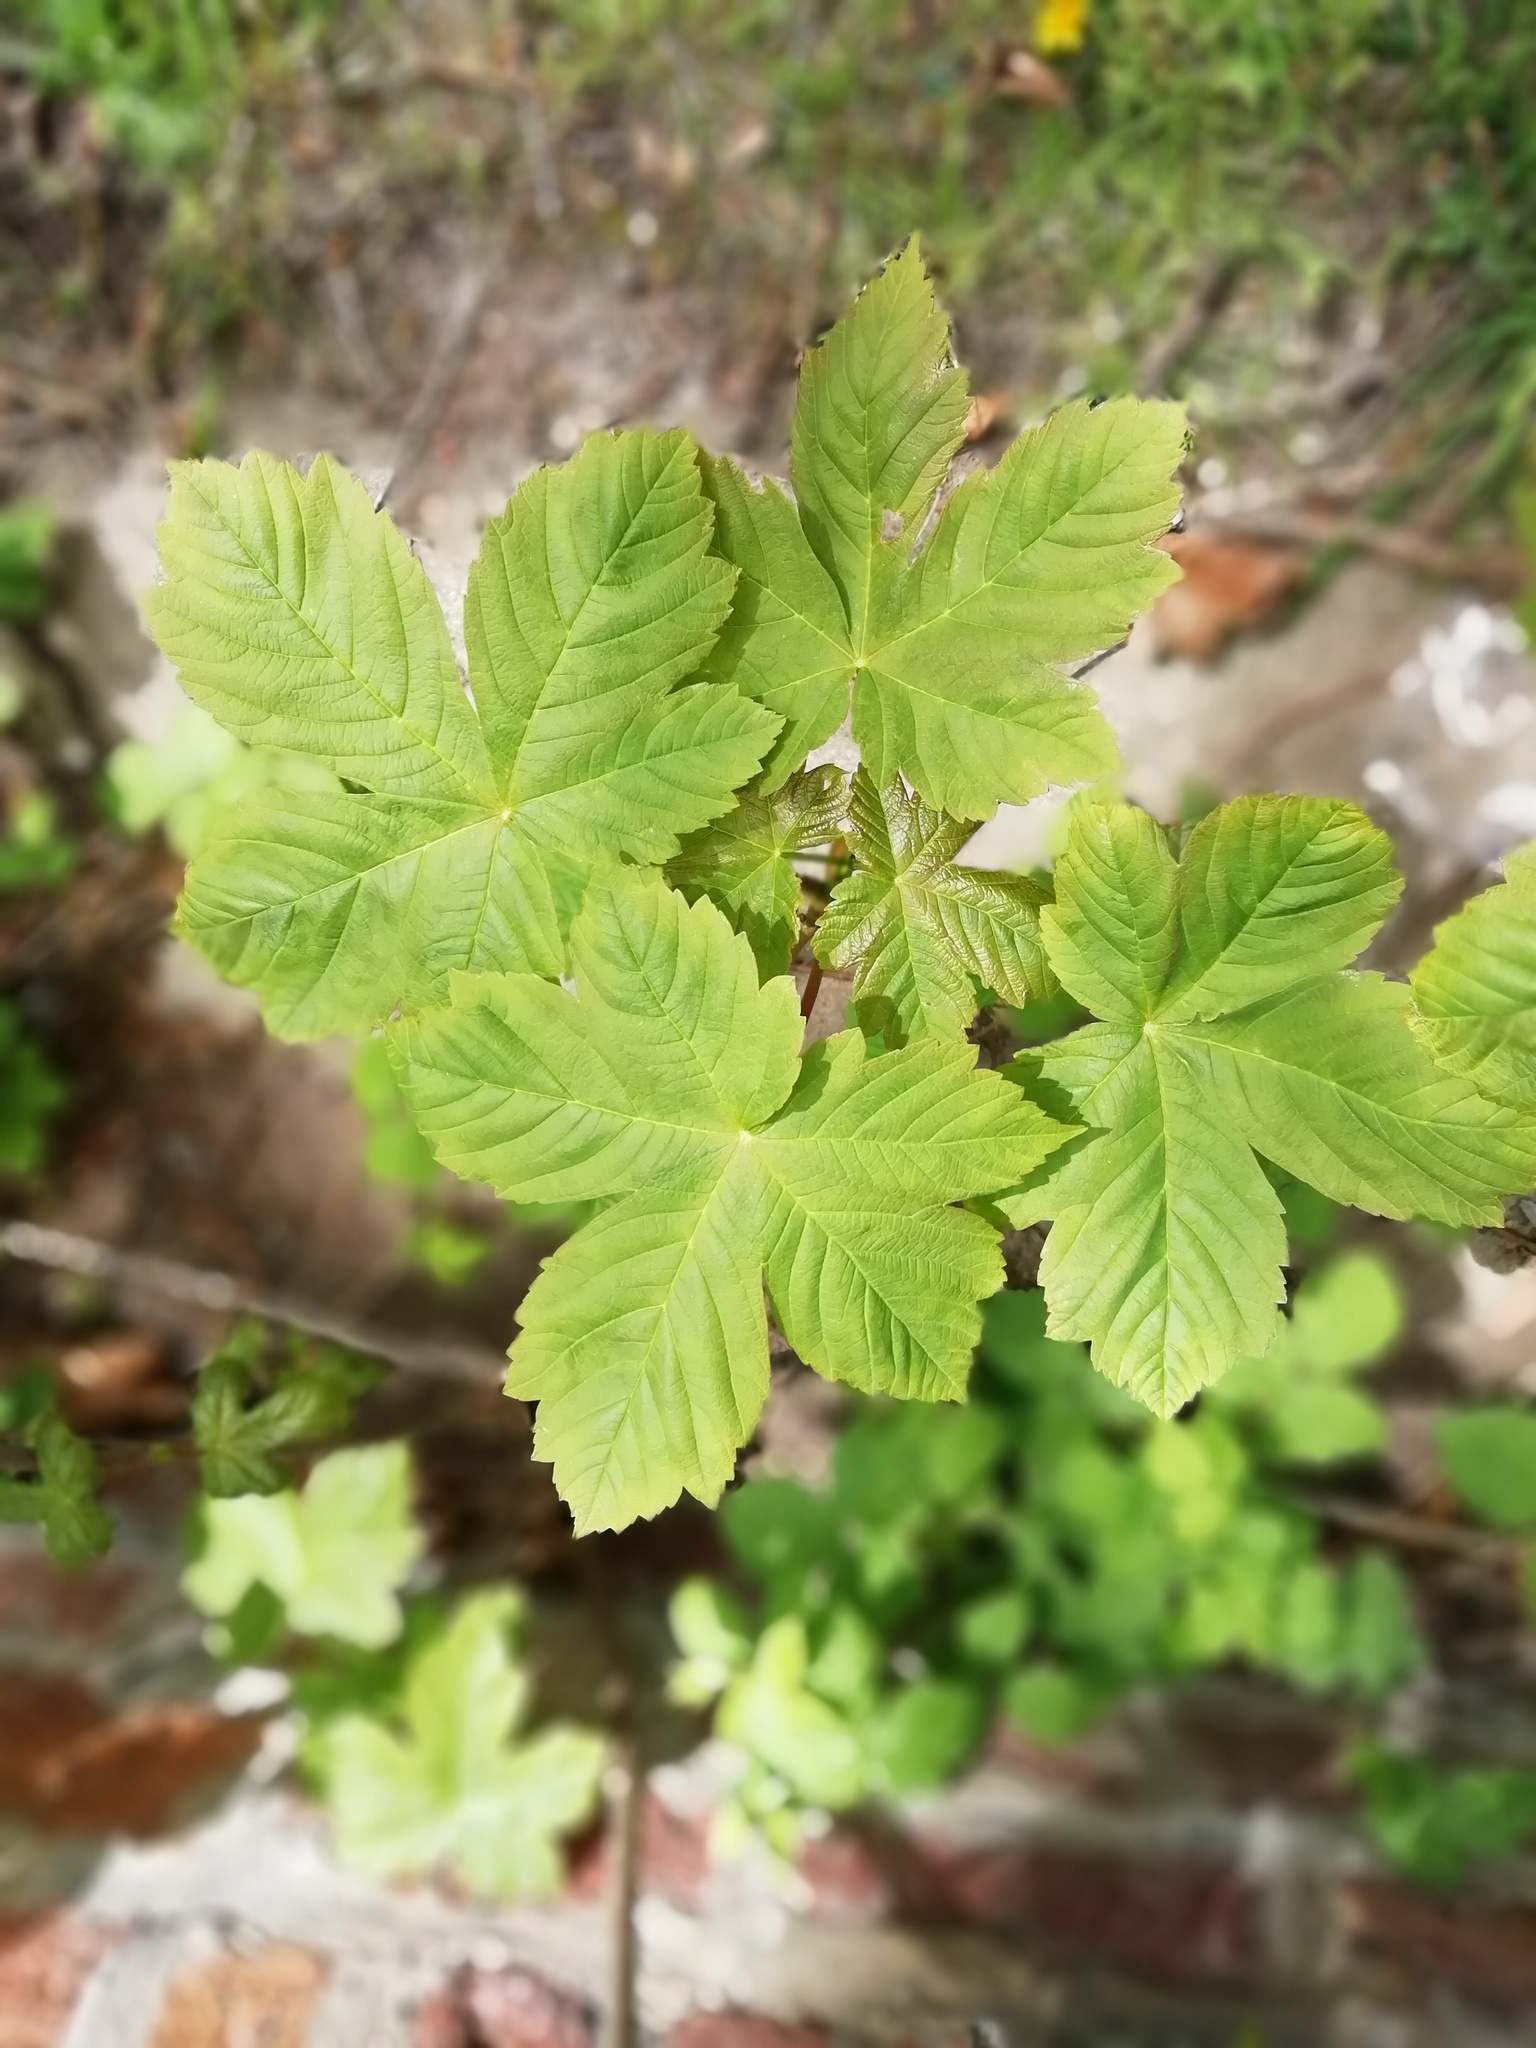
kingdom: Plantae
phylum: Tracheophyta
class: Magnoliopsida
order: Sapindales
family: Sapindaceae
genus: Acer
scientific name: Acer pseudoplatanus
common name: Sycamore
